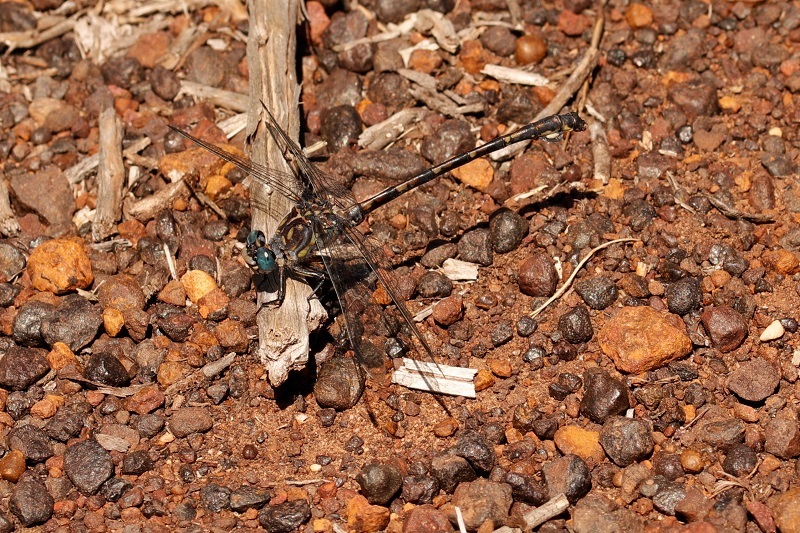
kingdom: Animalia
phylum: Arthropoda
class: Insecta
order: Odonata
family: Gomphidae
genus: Ceratogomphus
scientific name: Ceratogomphus triceraticus
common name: Cape thorntail
